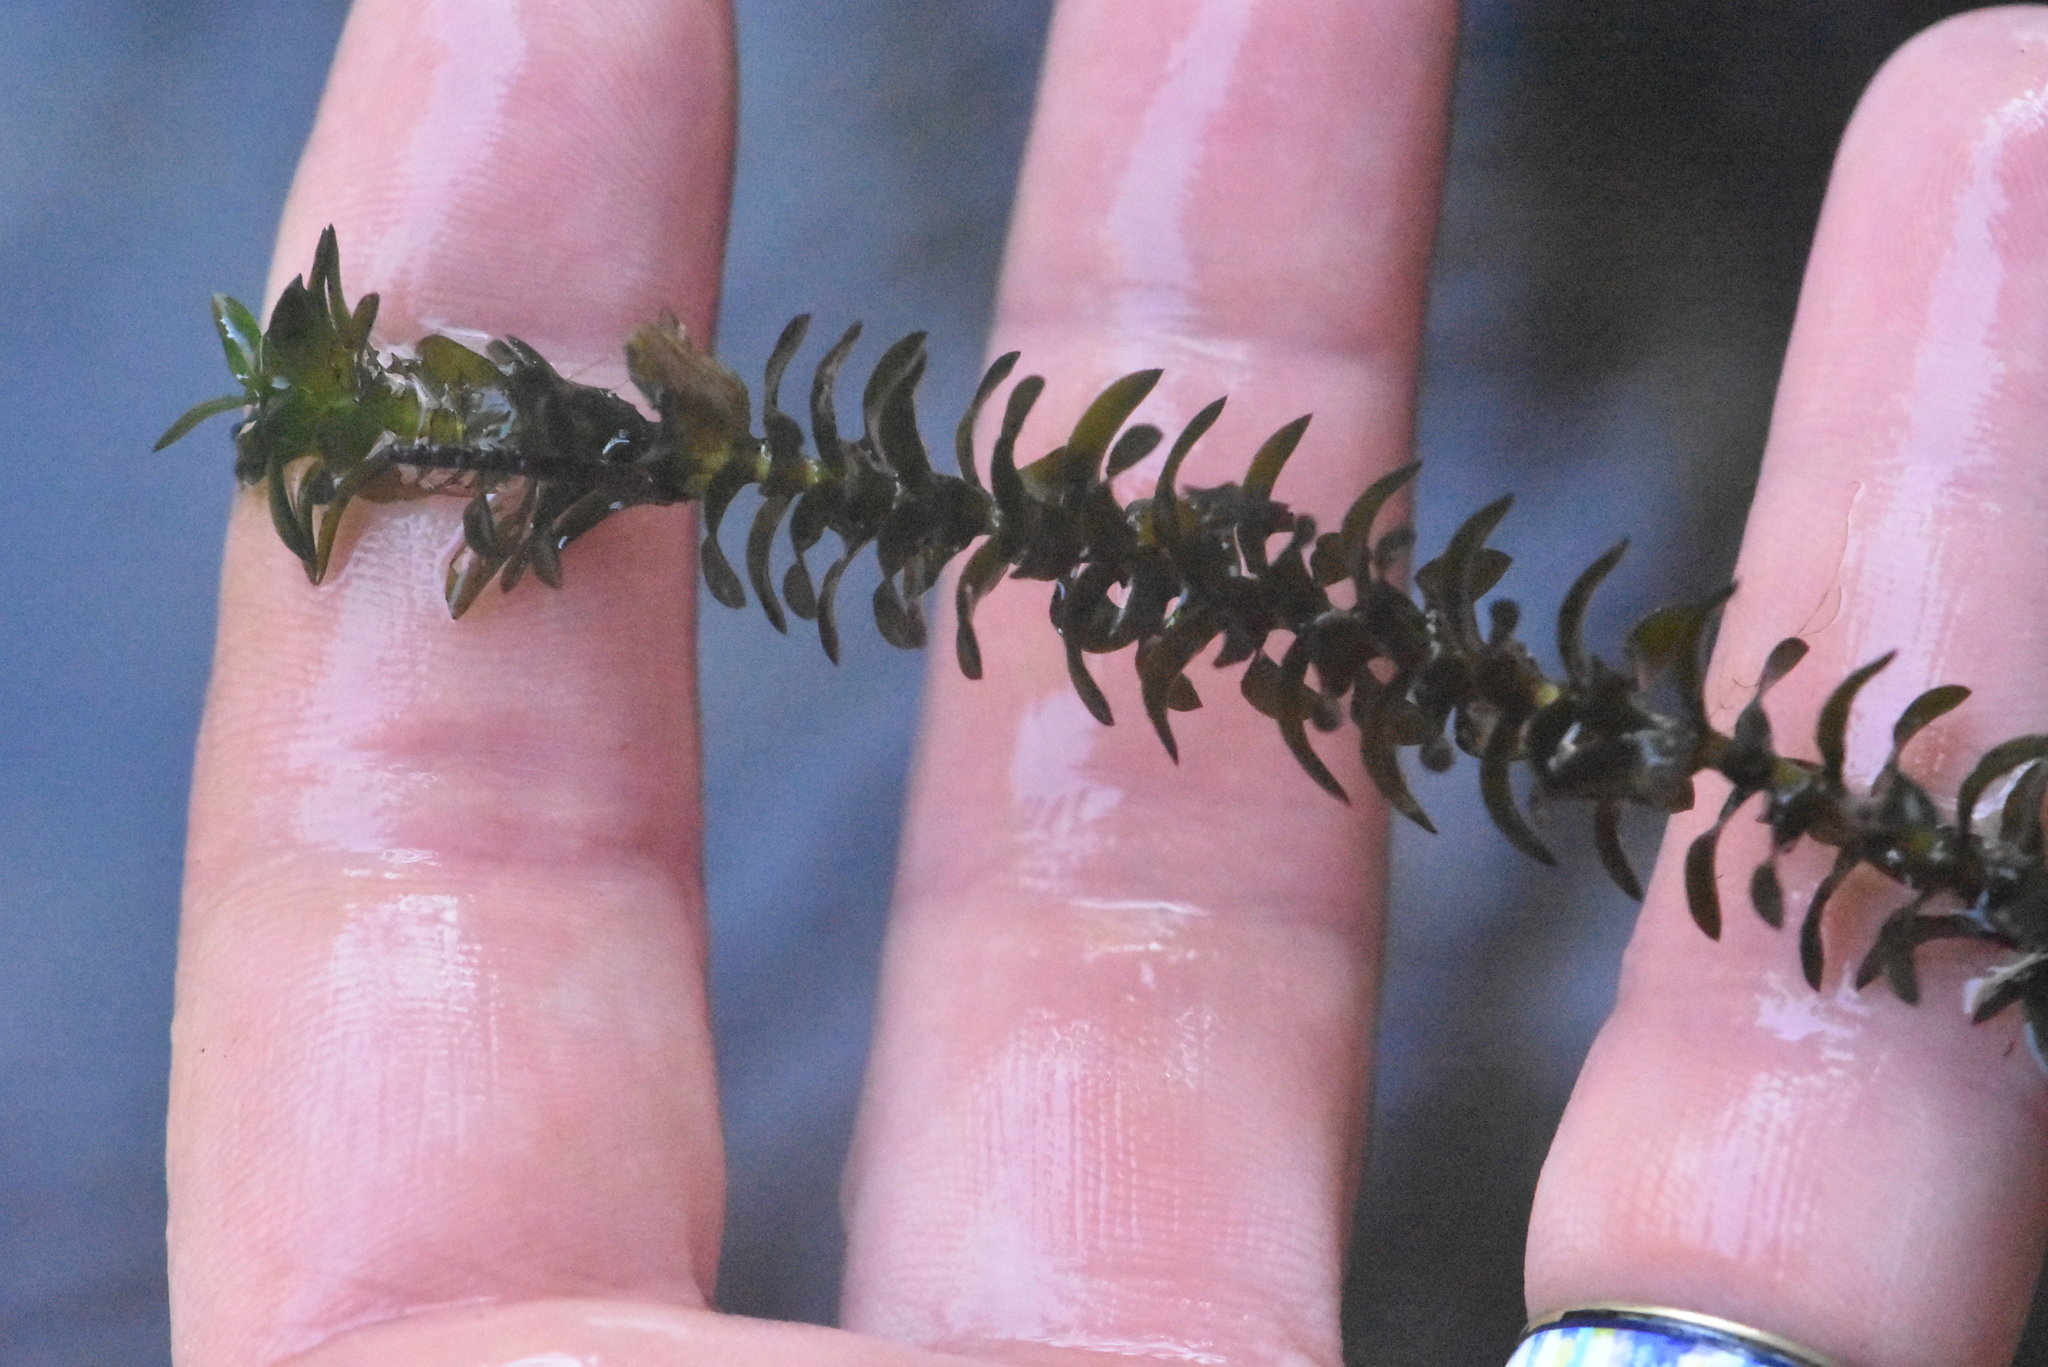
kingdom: Plantae
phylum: Tracheophyta
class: Liliopsida
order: Alismatales
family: Hydrocharitaceae
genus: Elodea
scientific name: Elodea canadensis
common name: Canadian waterweed
